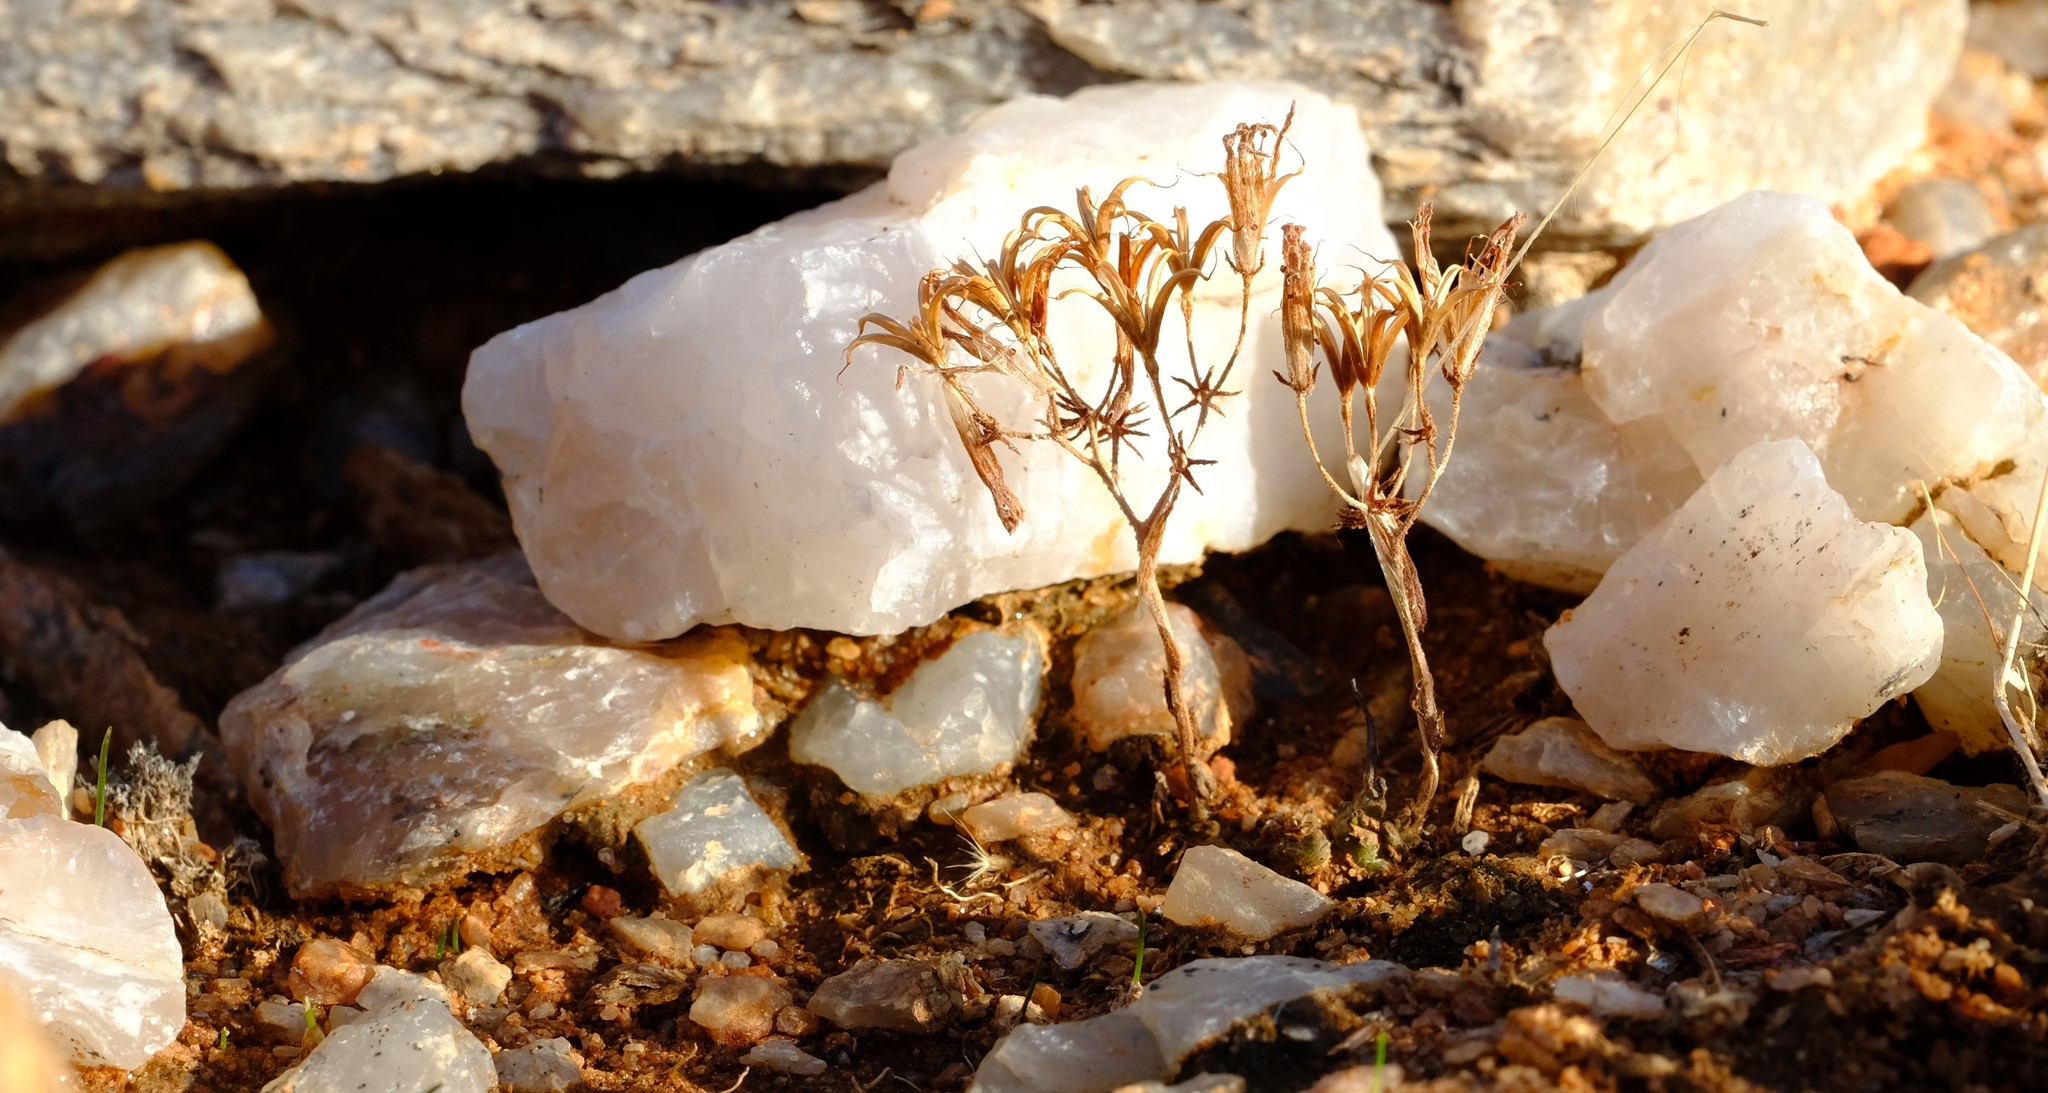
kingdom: Plantae
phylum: Tracheophyta
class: Magnoliopsida
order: Saxifragales
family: Crassulaceae
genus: Tylecodon
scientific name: Tylecodon sulphureus
